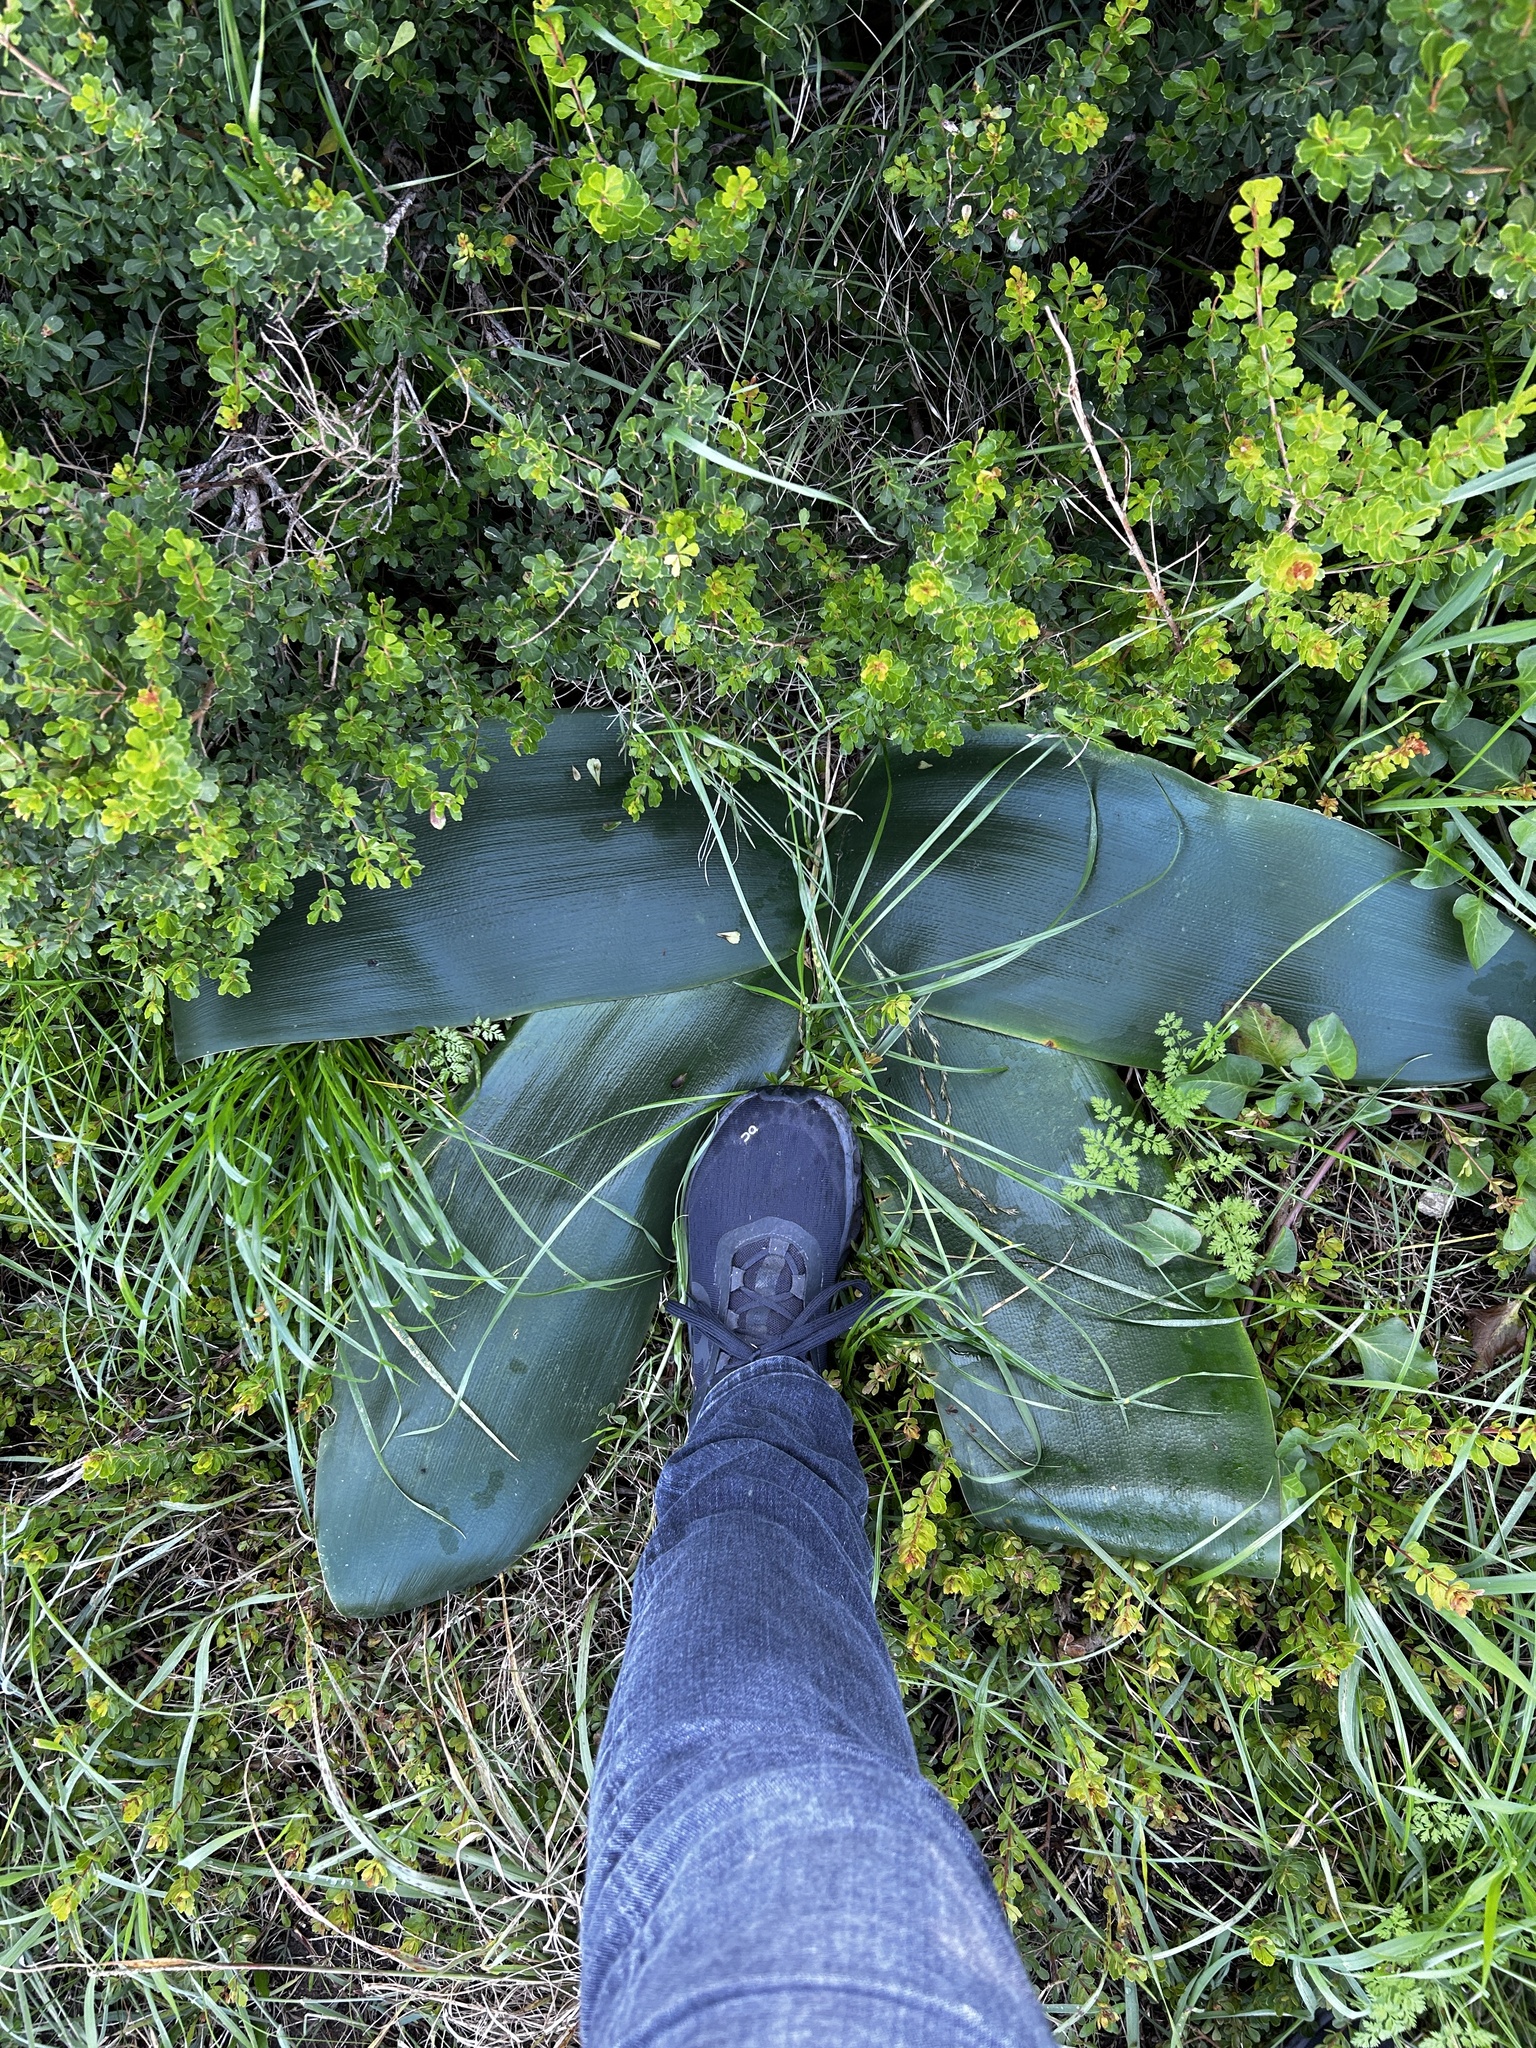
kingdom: Plantae
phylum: Tracheophyta
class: Liliopsida
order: Asparagales
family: Amaryllidaceae
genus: Brunsvigia
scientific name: Brunsvigia orientalis
